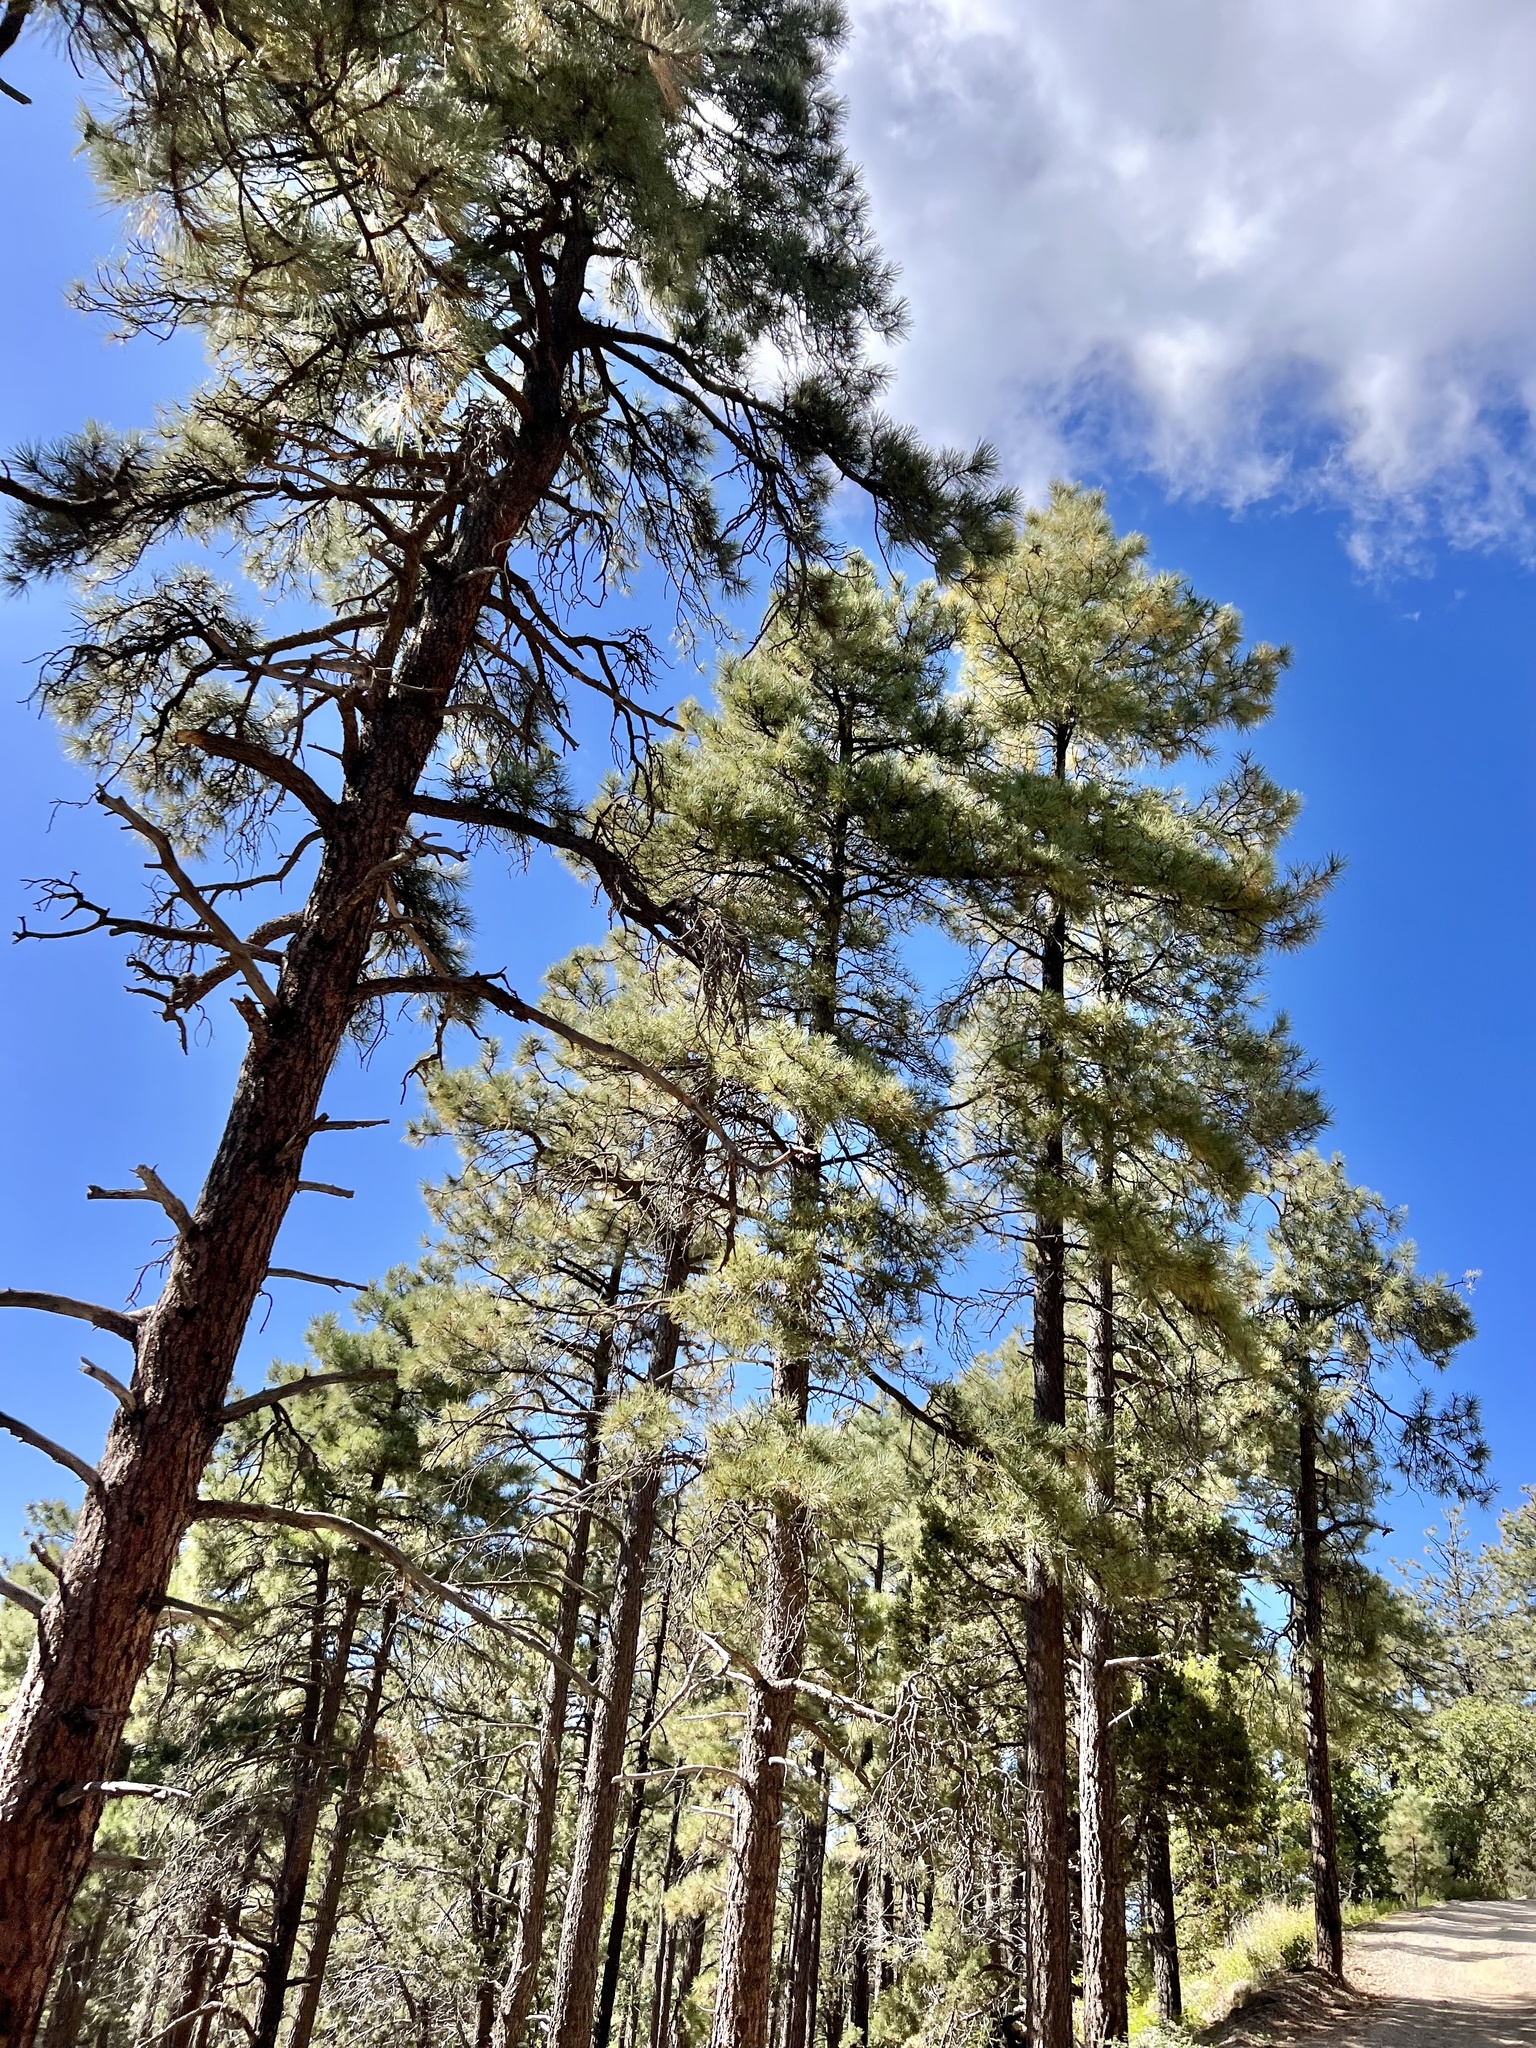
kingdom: Plantae
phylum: Tracheophyta
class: Pinopsida
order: Pinales
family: Pinaceae
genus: Pinus
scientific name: Pinus ponderosa
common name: Western yellow-pine
